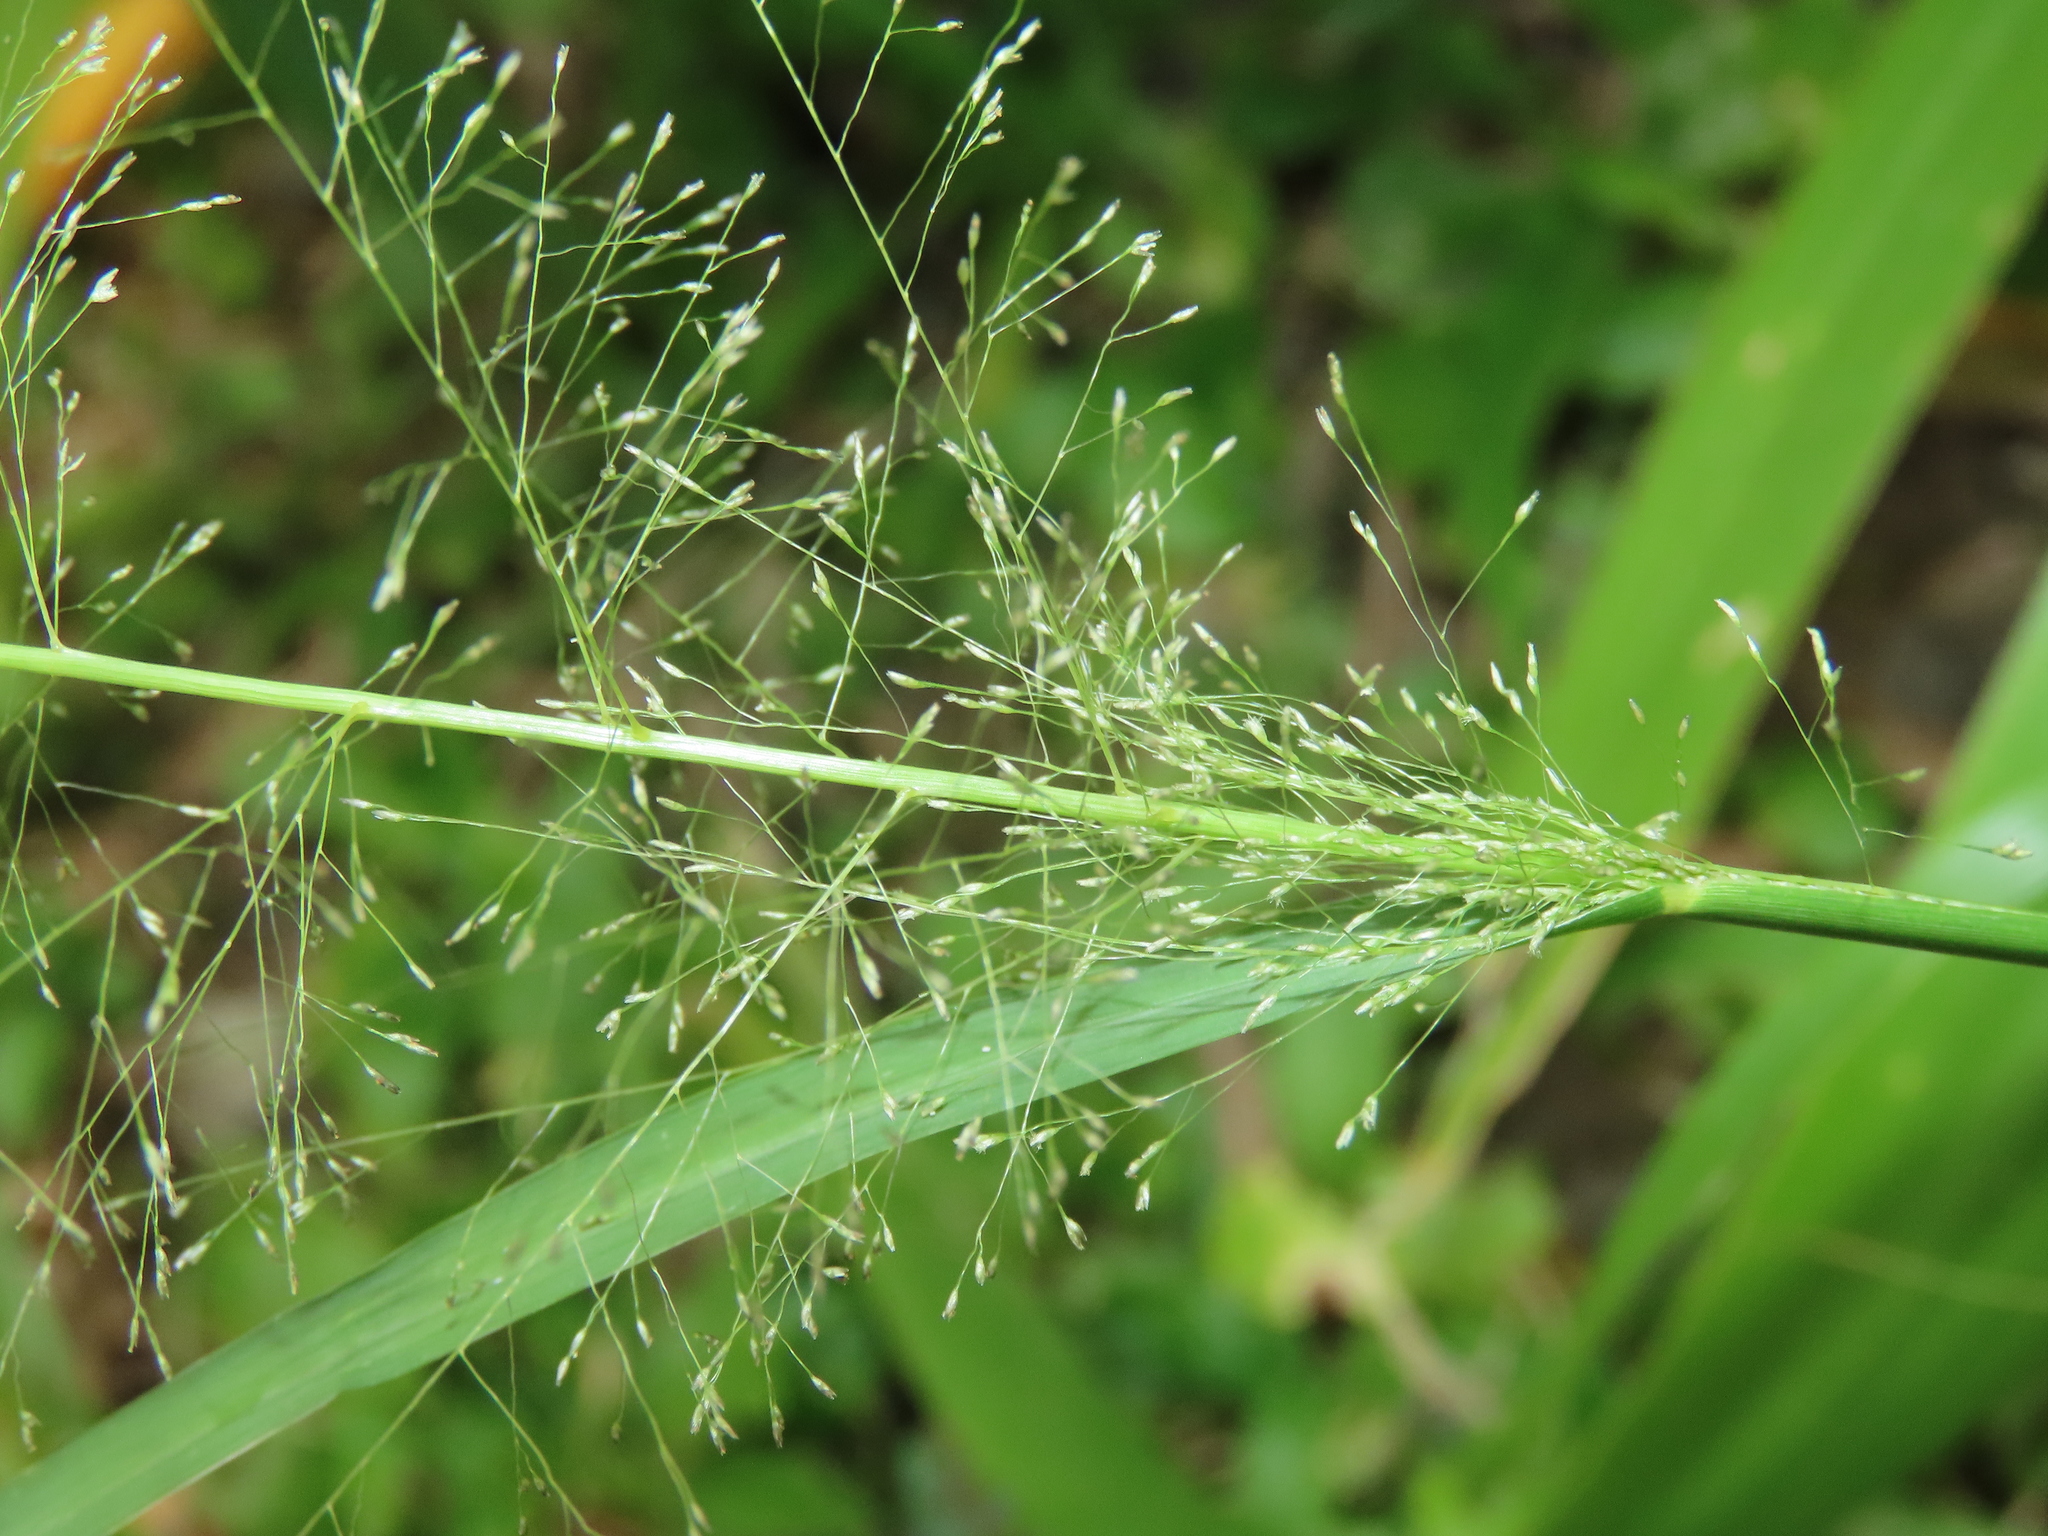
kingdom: Plantae
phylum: Tracheophyta
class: Liliopsida
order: Poales
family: Poaceae
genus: Cyrtococcum
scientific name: Cyrtococcum patens
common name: Broad-leaved bowgrass
